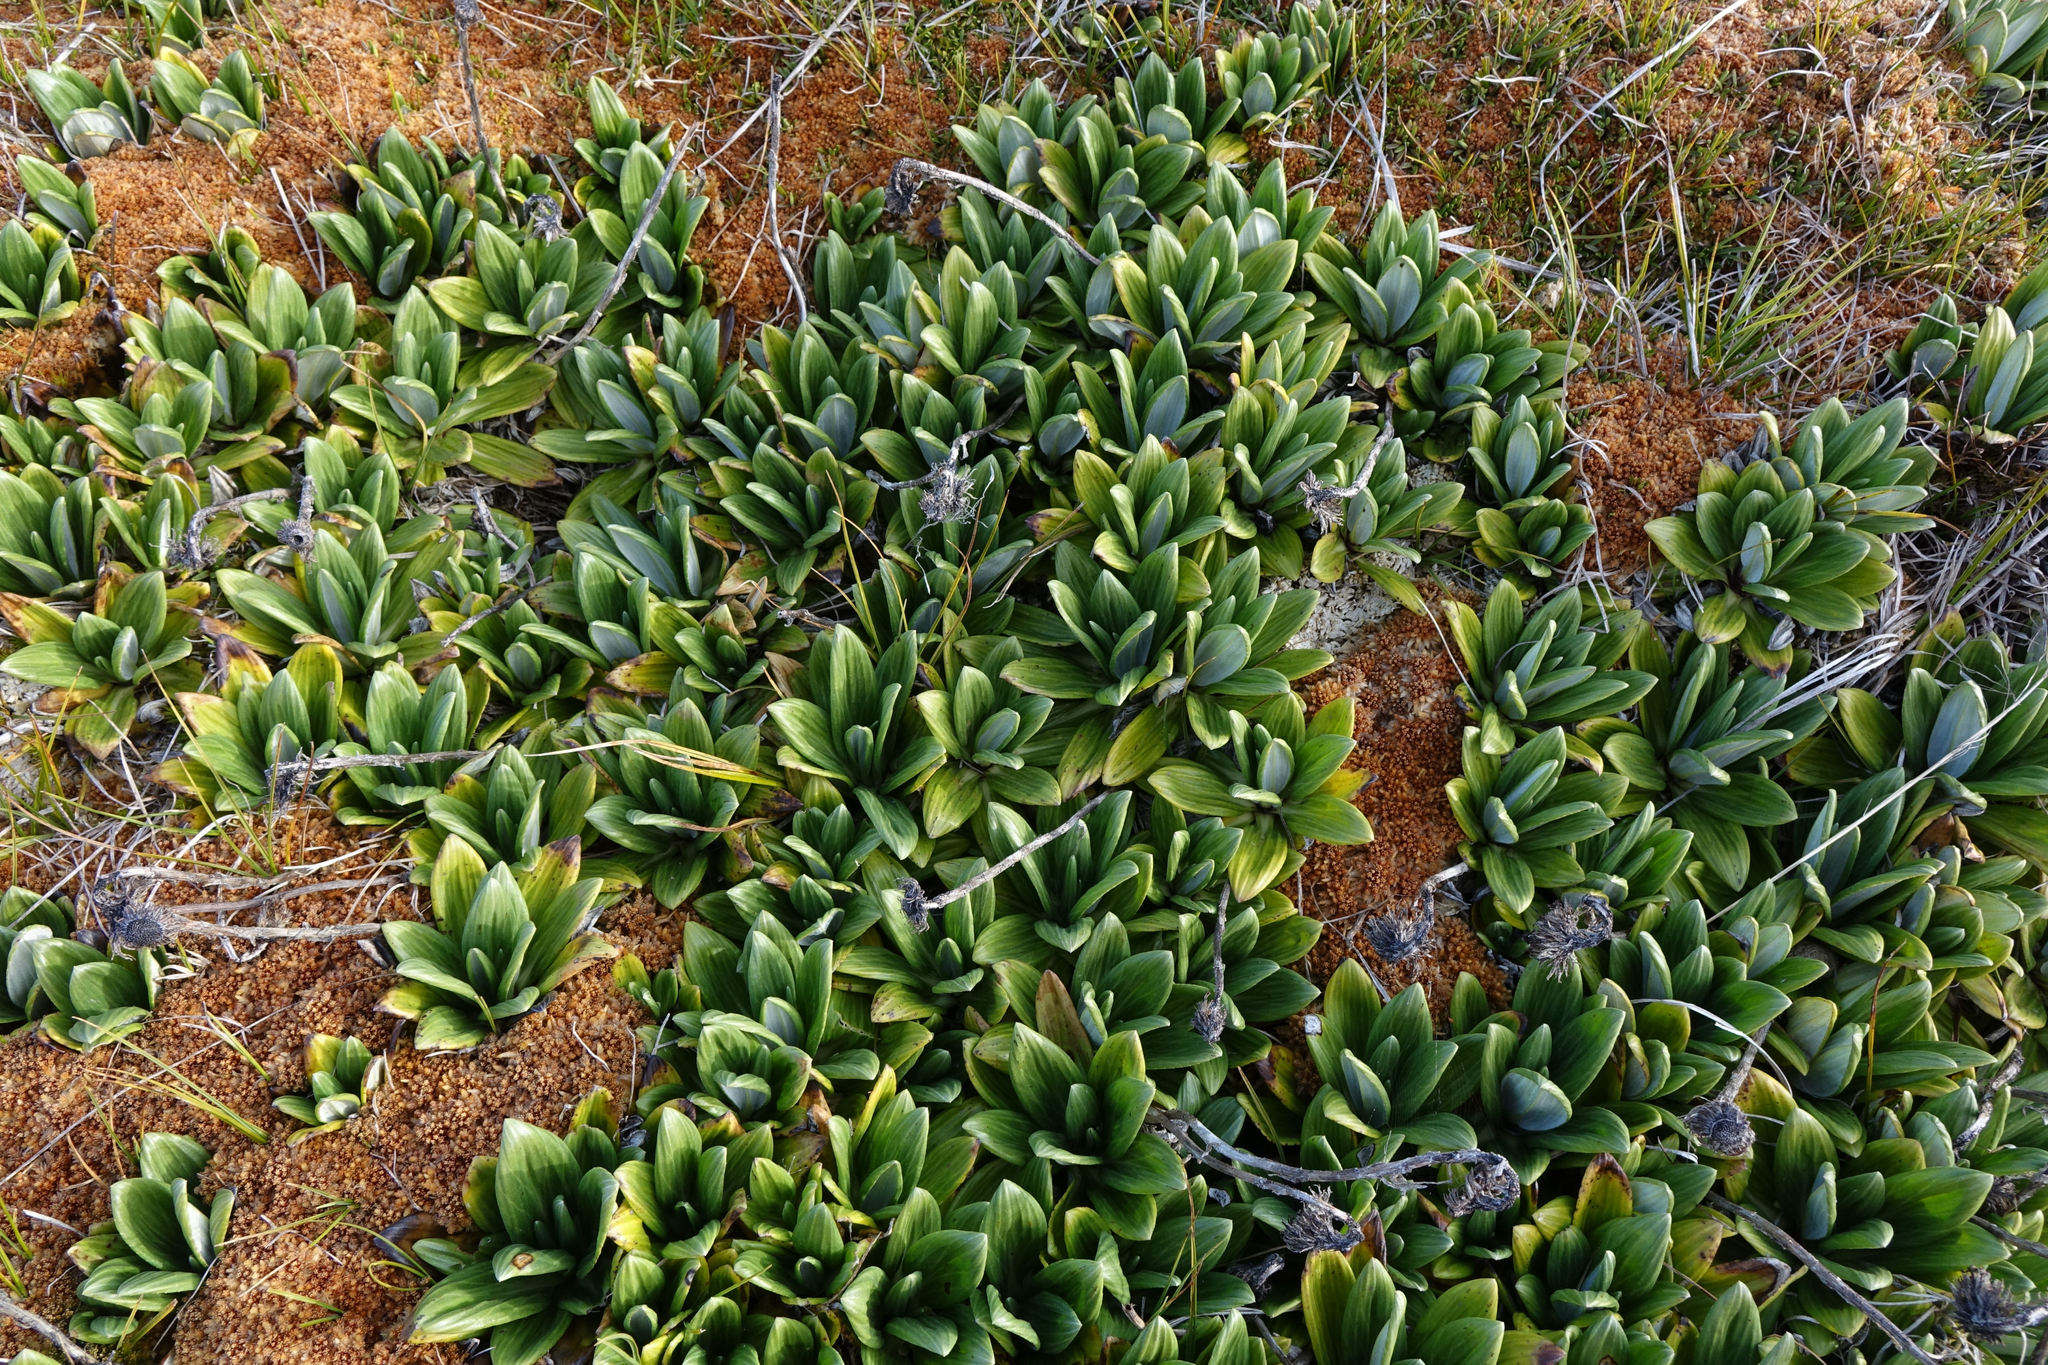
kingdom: Plantae
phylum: Tracheophyta
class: Magnoliopsida
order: Asterales
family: Asteraceae
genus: Celmisia
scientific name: Celmisia haastii
